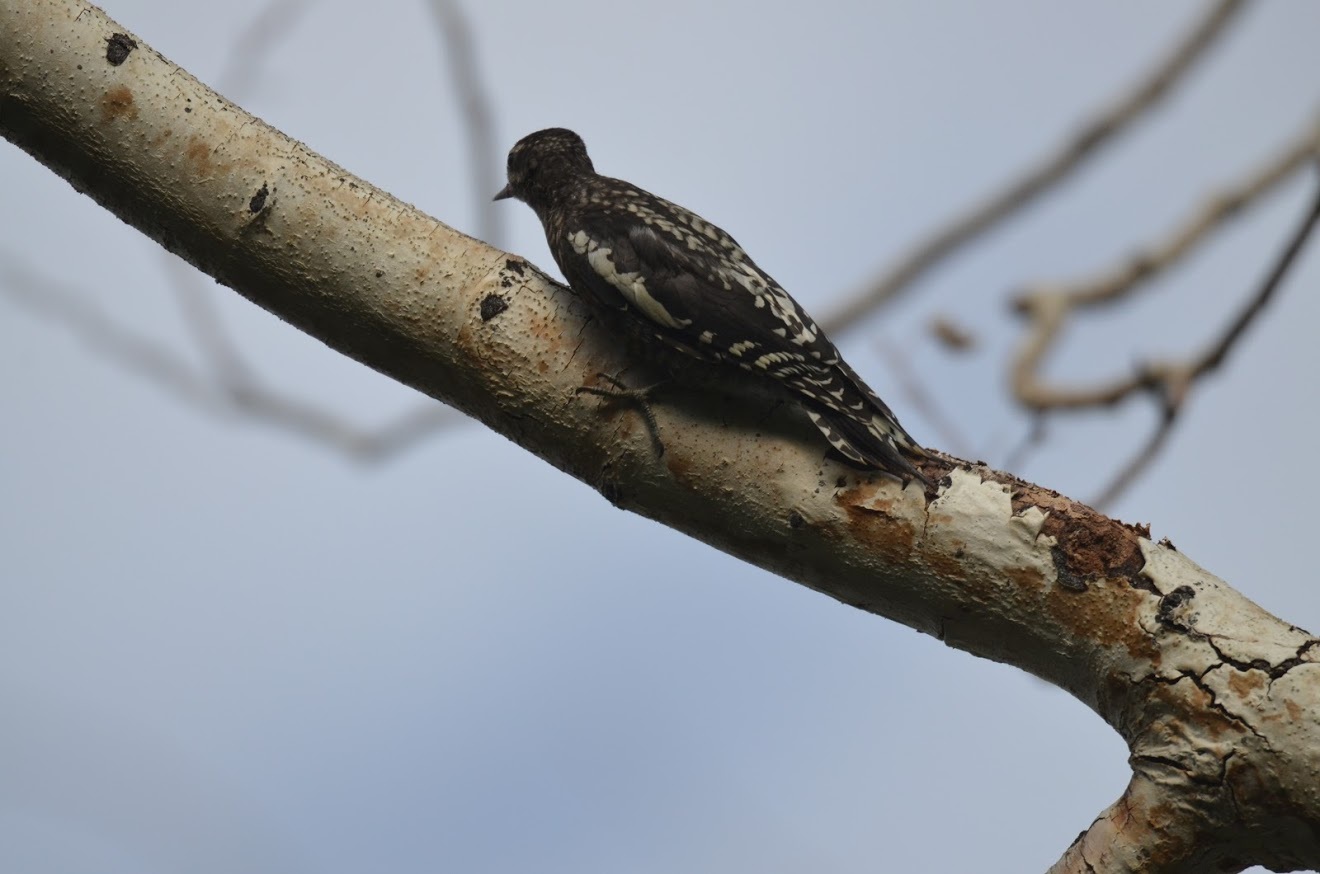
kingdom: Animalia
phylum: Chordata
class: Aves
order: Piciformes
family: Picidae
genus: Sphyrapicus
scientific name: Sphyrapicus nuchalis
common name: Red-naped sapsucker
